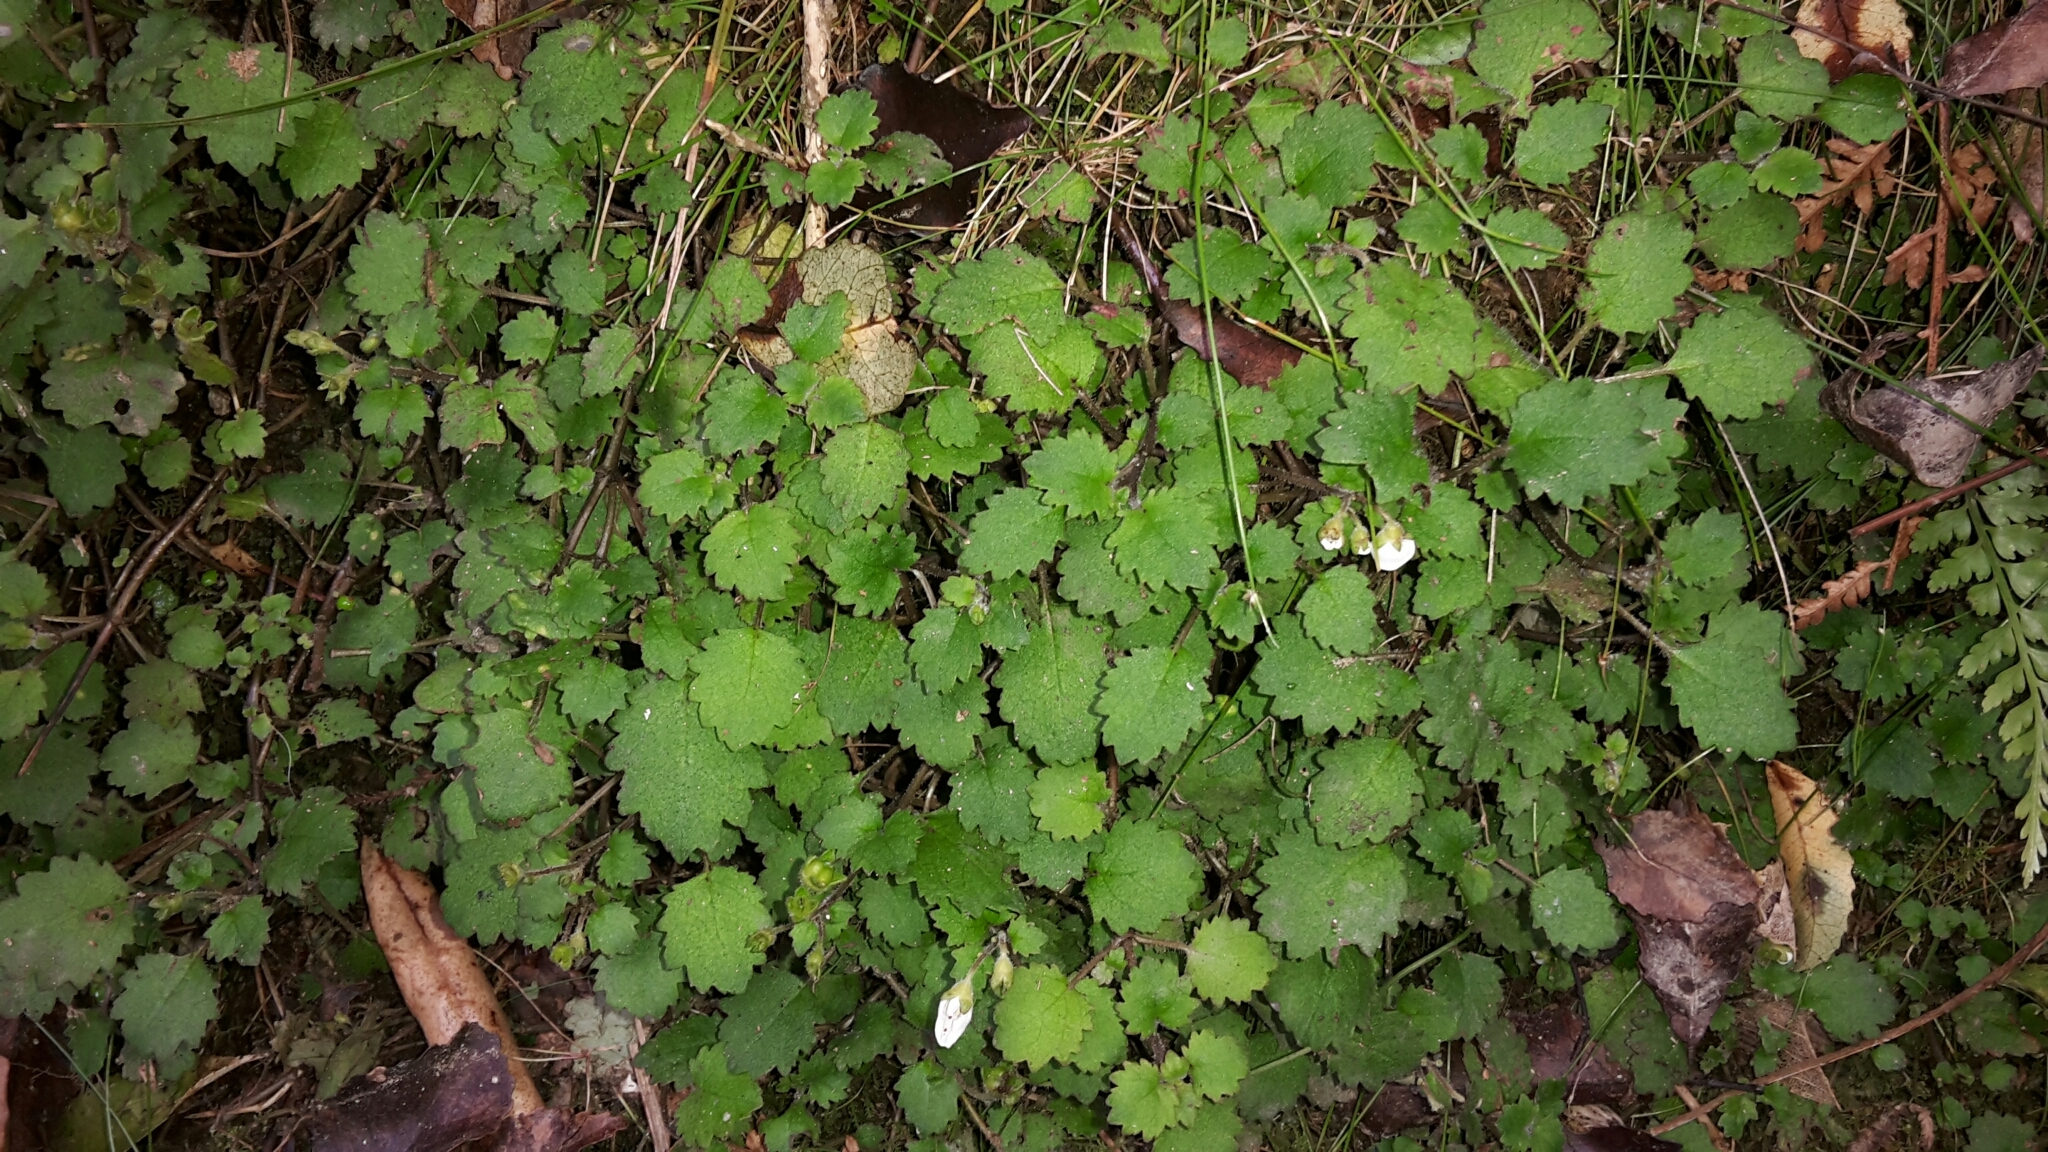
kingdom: Plantae
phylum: Tracheophyta
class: Magnoliopsida
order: Lamiales
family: Calceolariaceae
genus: Jovellana
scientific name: Jovellana repens
